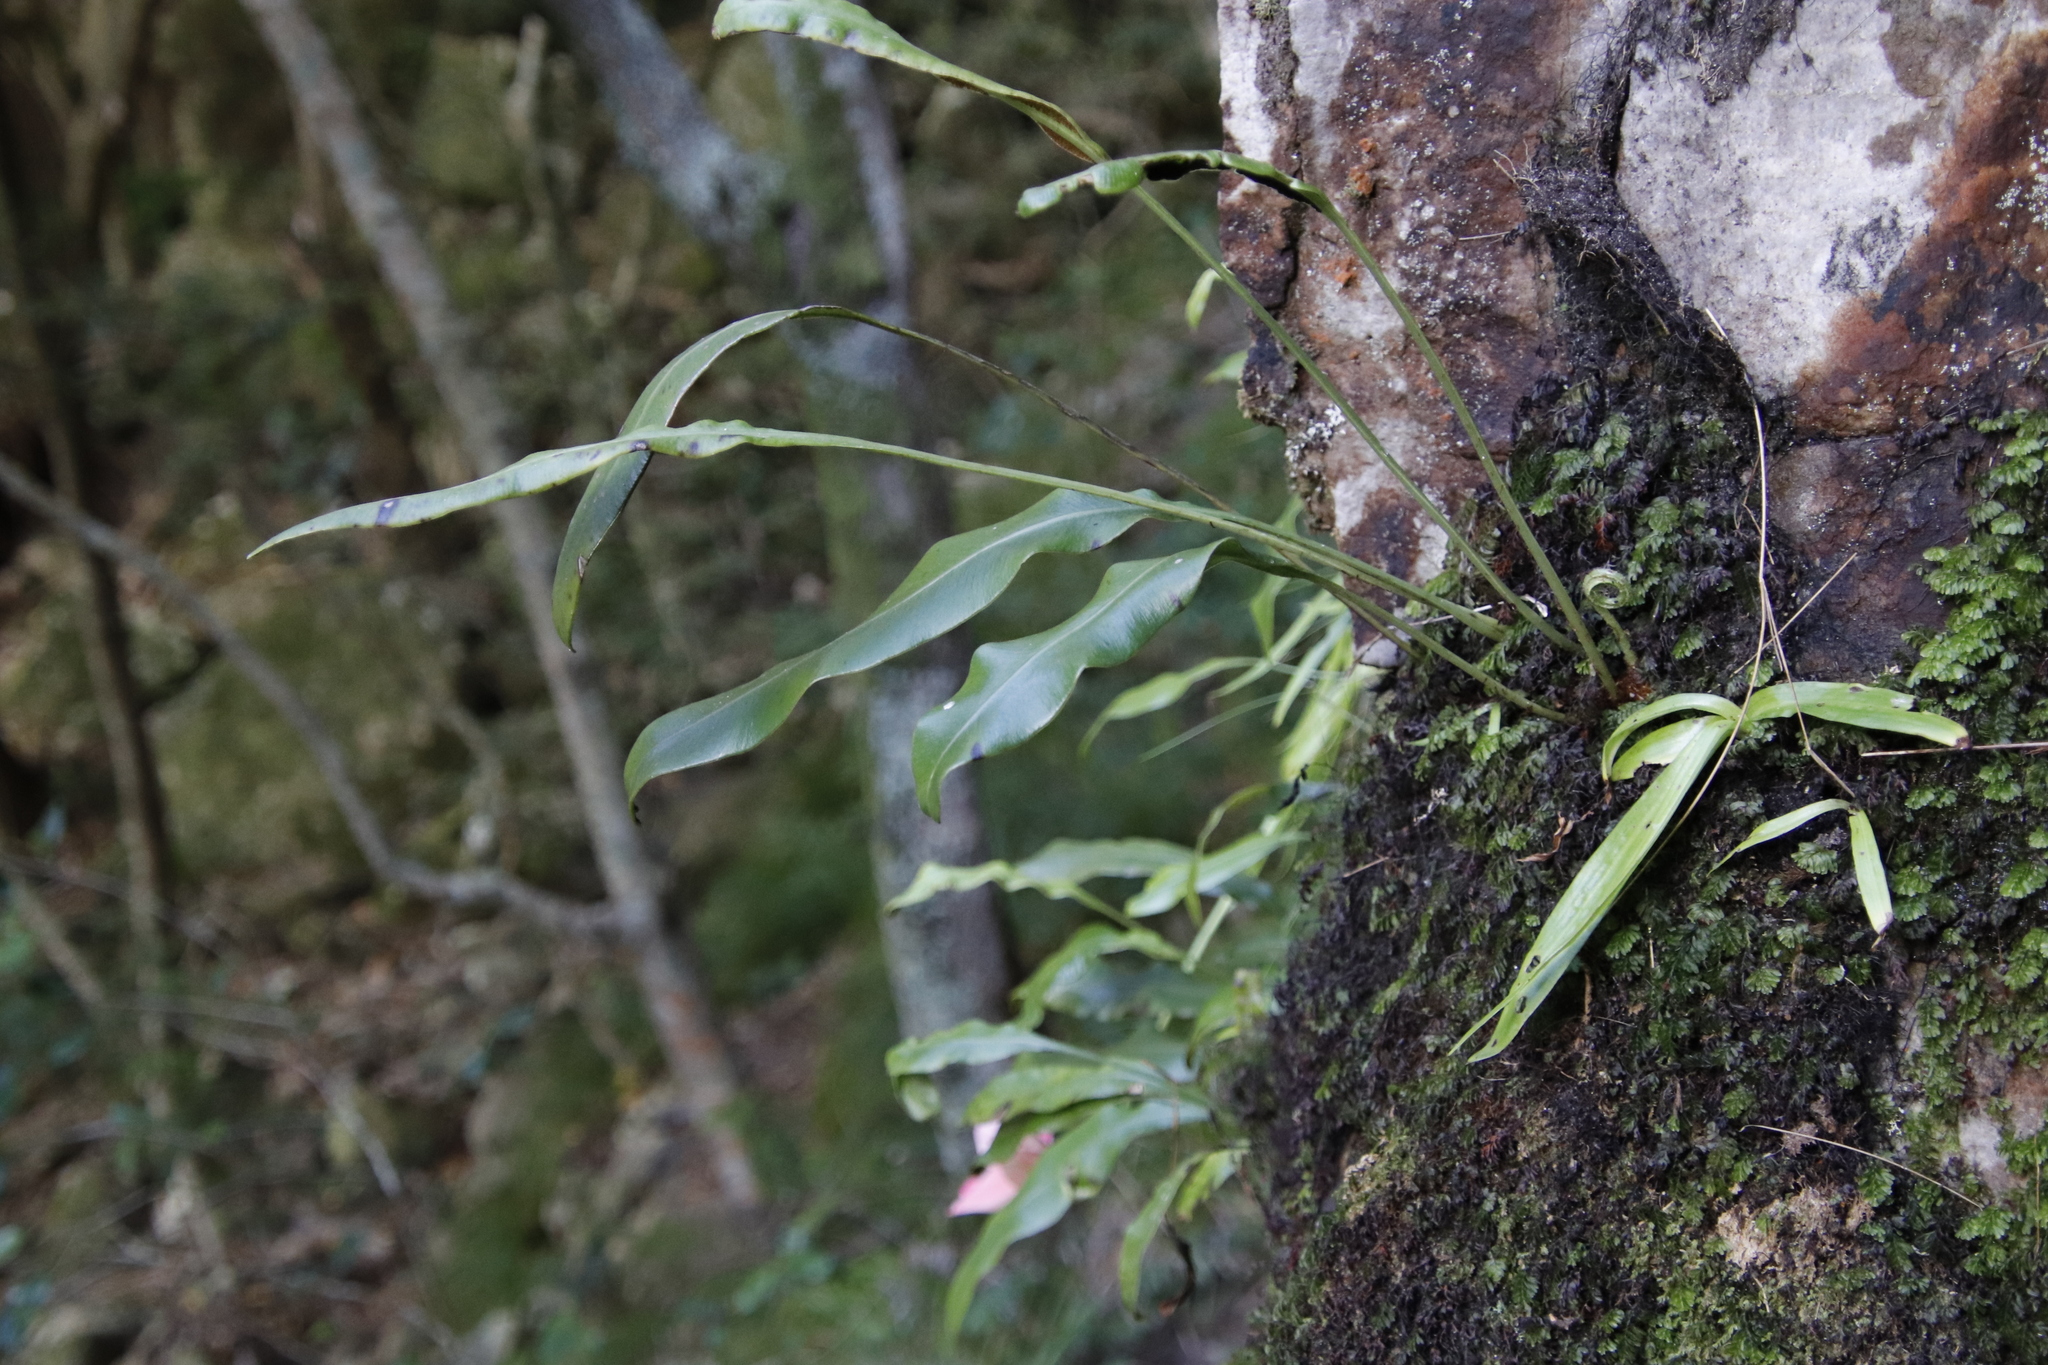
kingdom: Plantae
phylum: Tracheophyta
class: Polypodiopsida
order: Polypodiales
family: Dryopteridaceae
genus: Elaphoglossum
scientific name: Elaphoglossum angustatum
